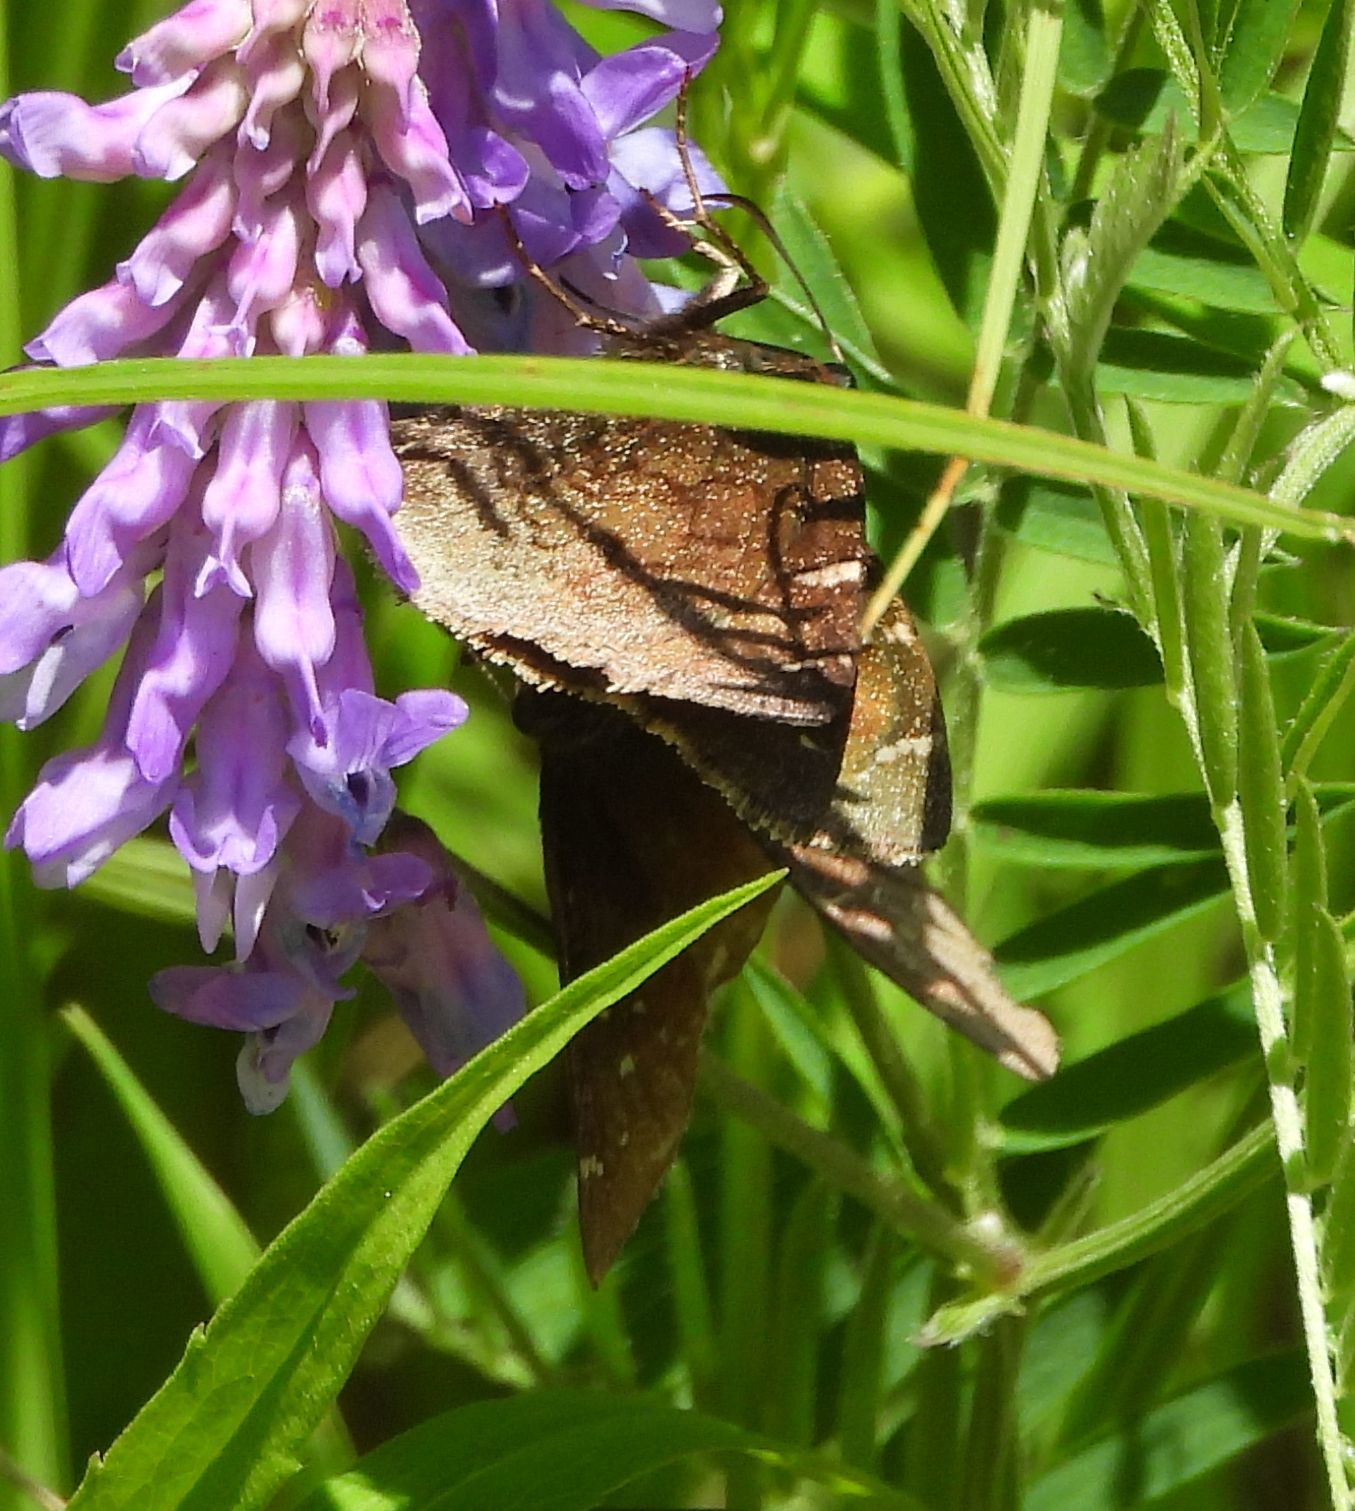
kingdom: Animalia
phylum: Arthropoda
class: Insecta
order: Lepidoptera
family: Hesperiidae
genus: Thorybes
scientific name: Thorybes pylades
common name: Northern cloudywing
